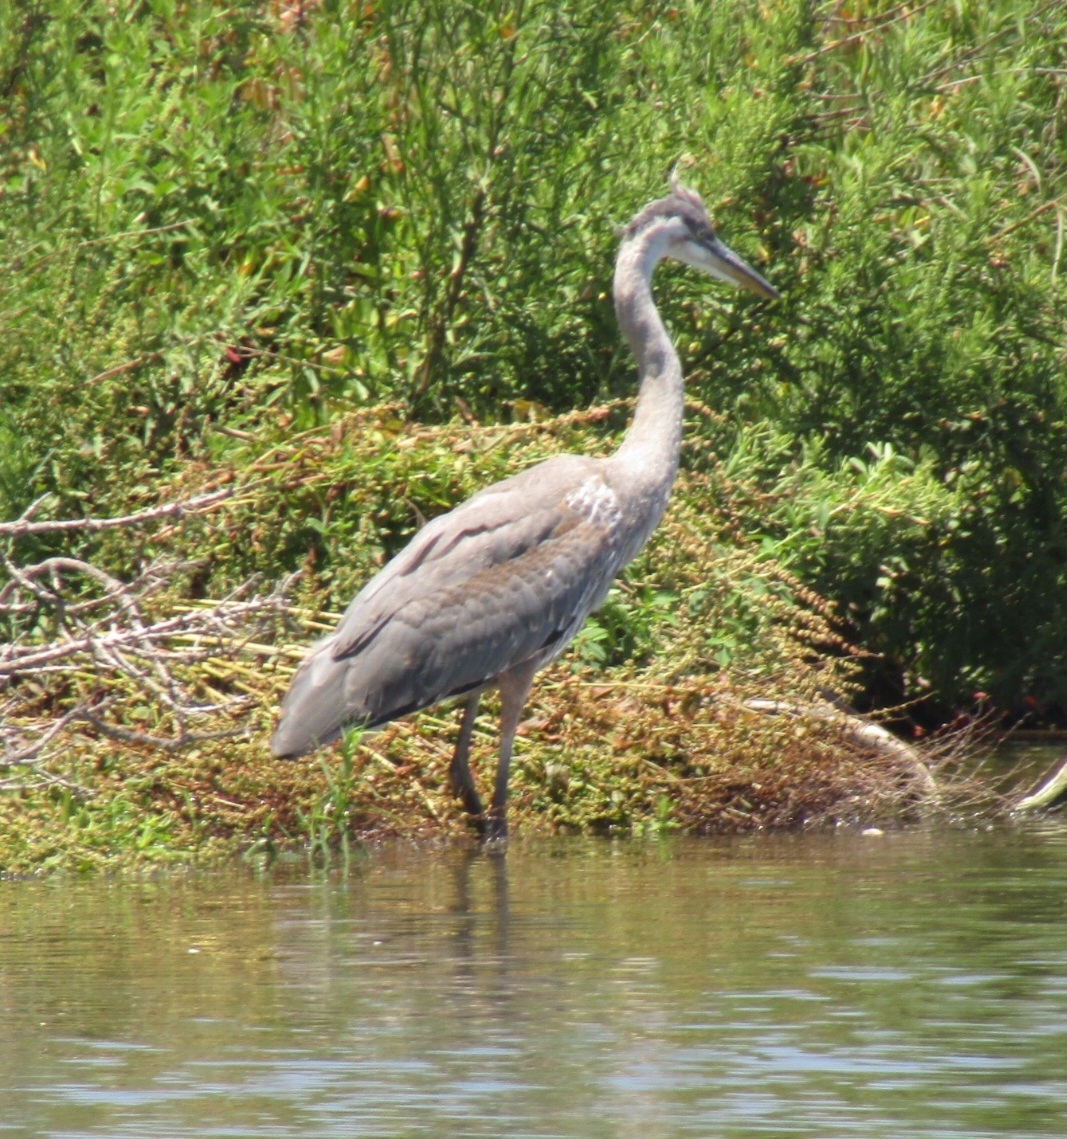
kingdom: Animalia
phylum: Chordata
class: Aves
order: Pelecaniformes
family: Ardeidae
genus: Ardea
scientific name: Ardea herodias
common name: Great blue heron
